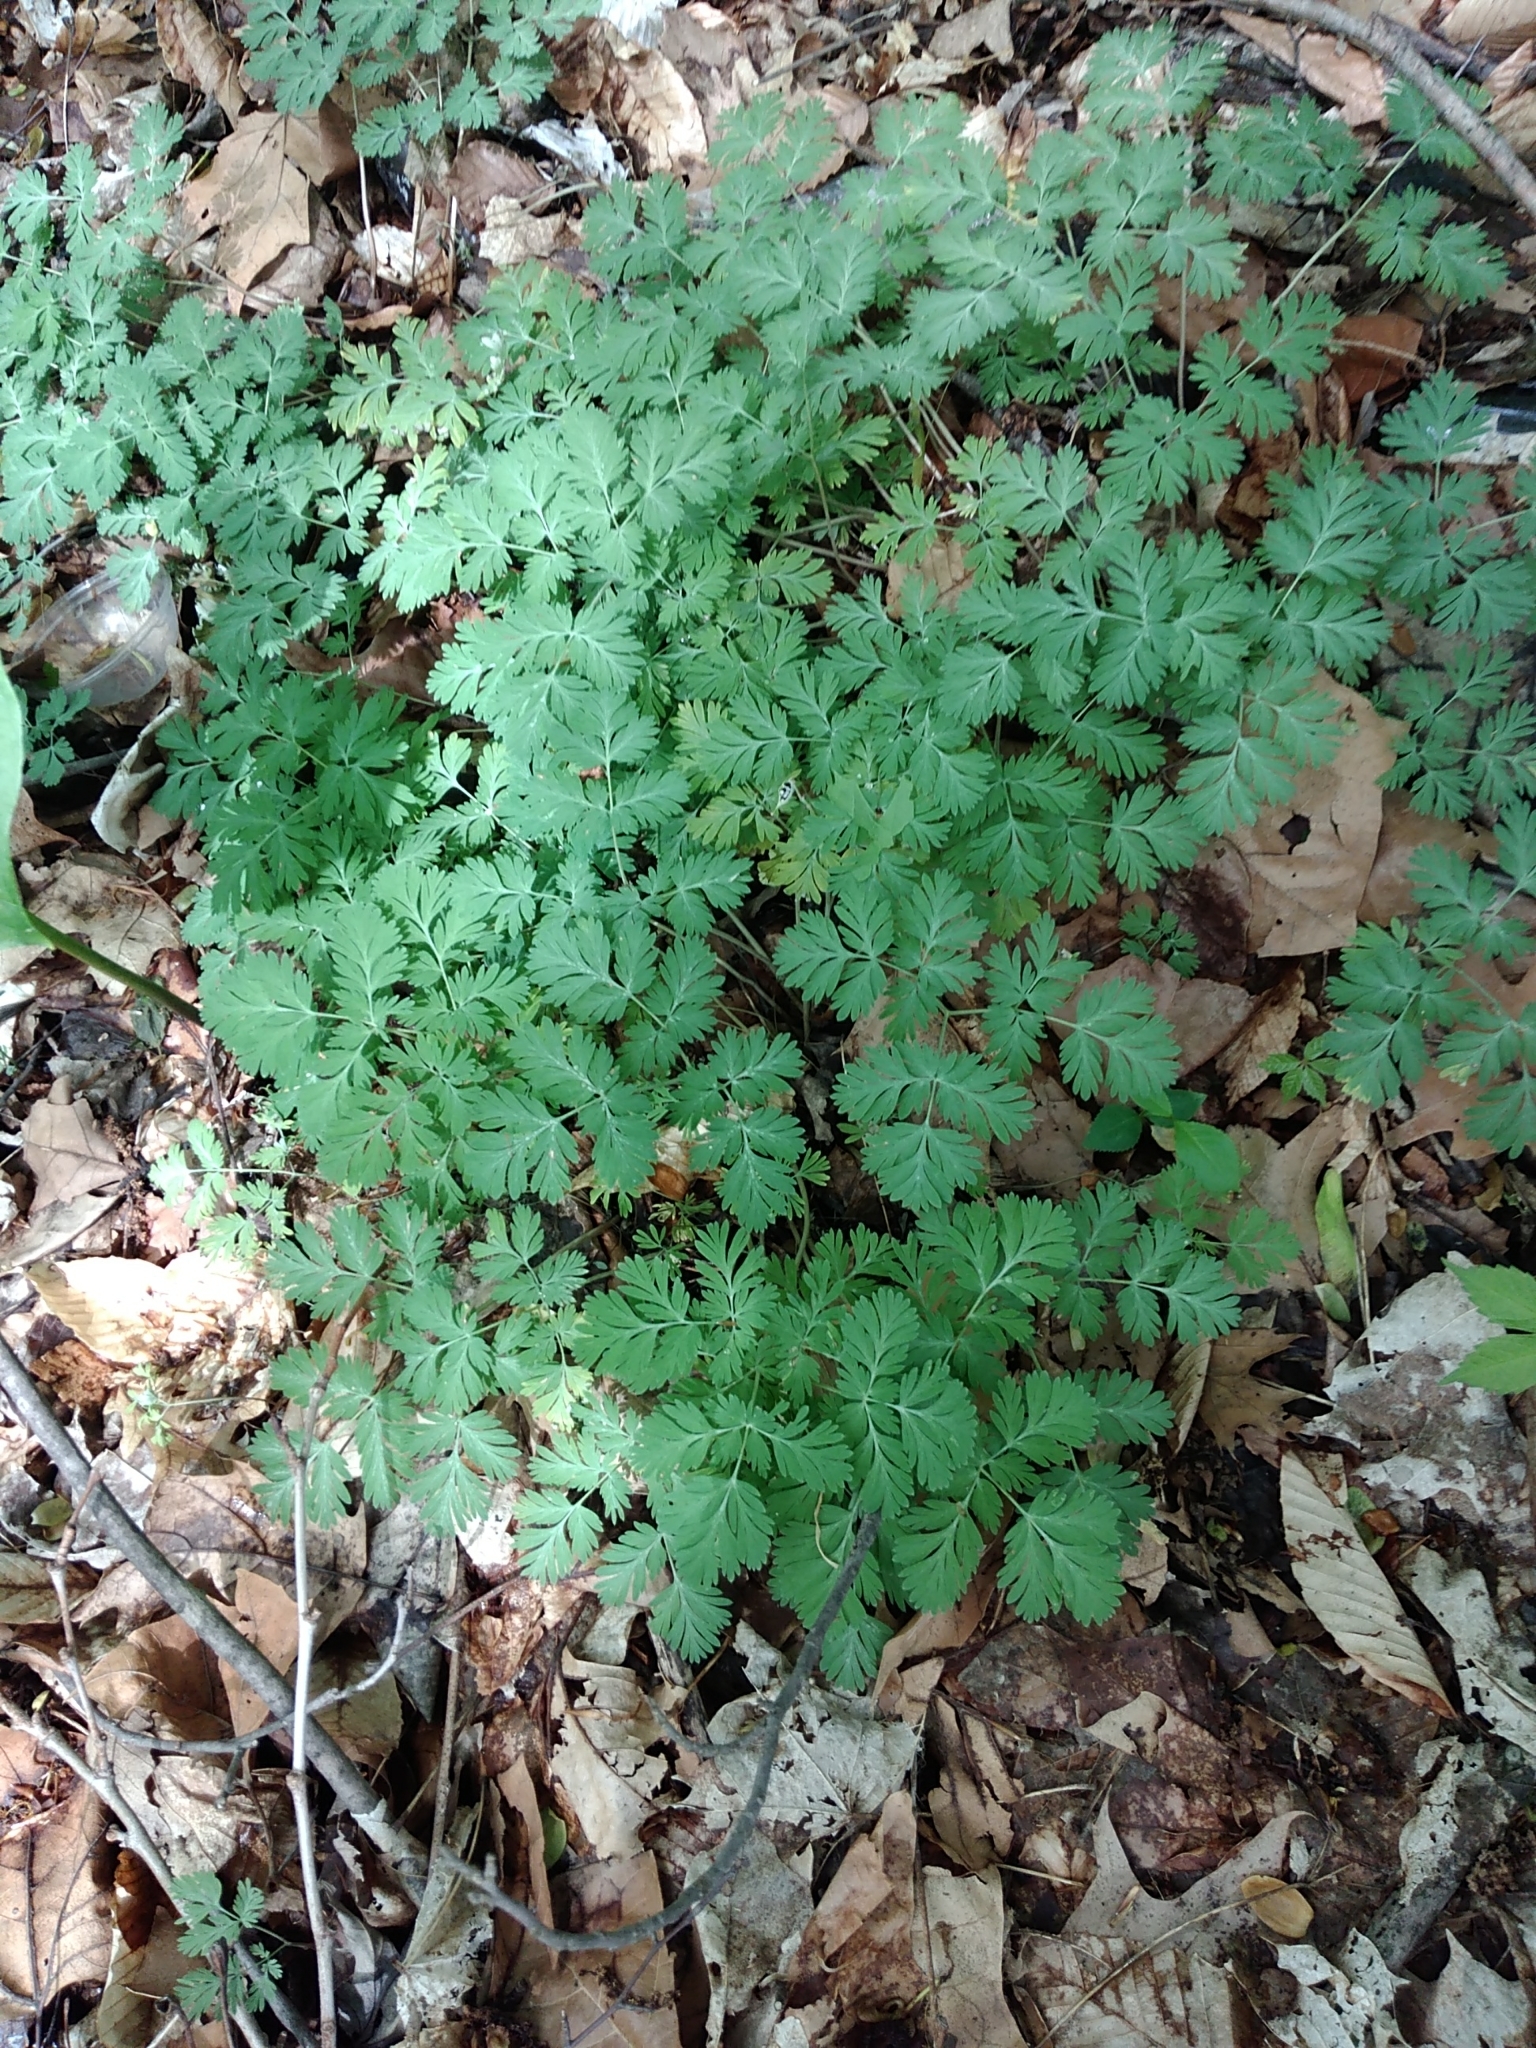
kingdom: Plantae
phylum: Tracheophyta
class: Magnoliopsida
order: Ranunculales
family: Papaveraceae
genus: Dicentra
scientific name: Dicentra cucullaria
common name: Dutchman's breeches
